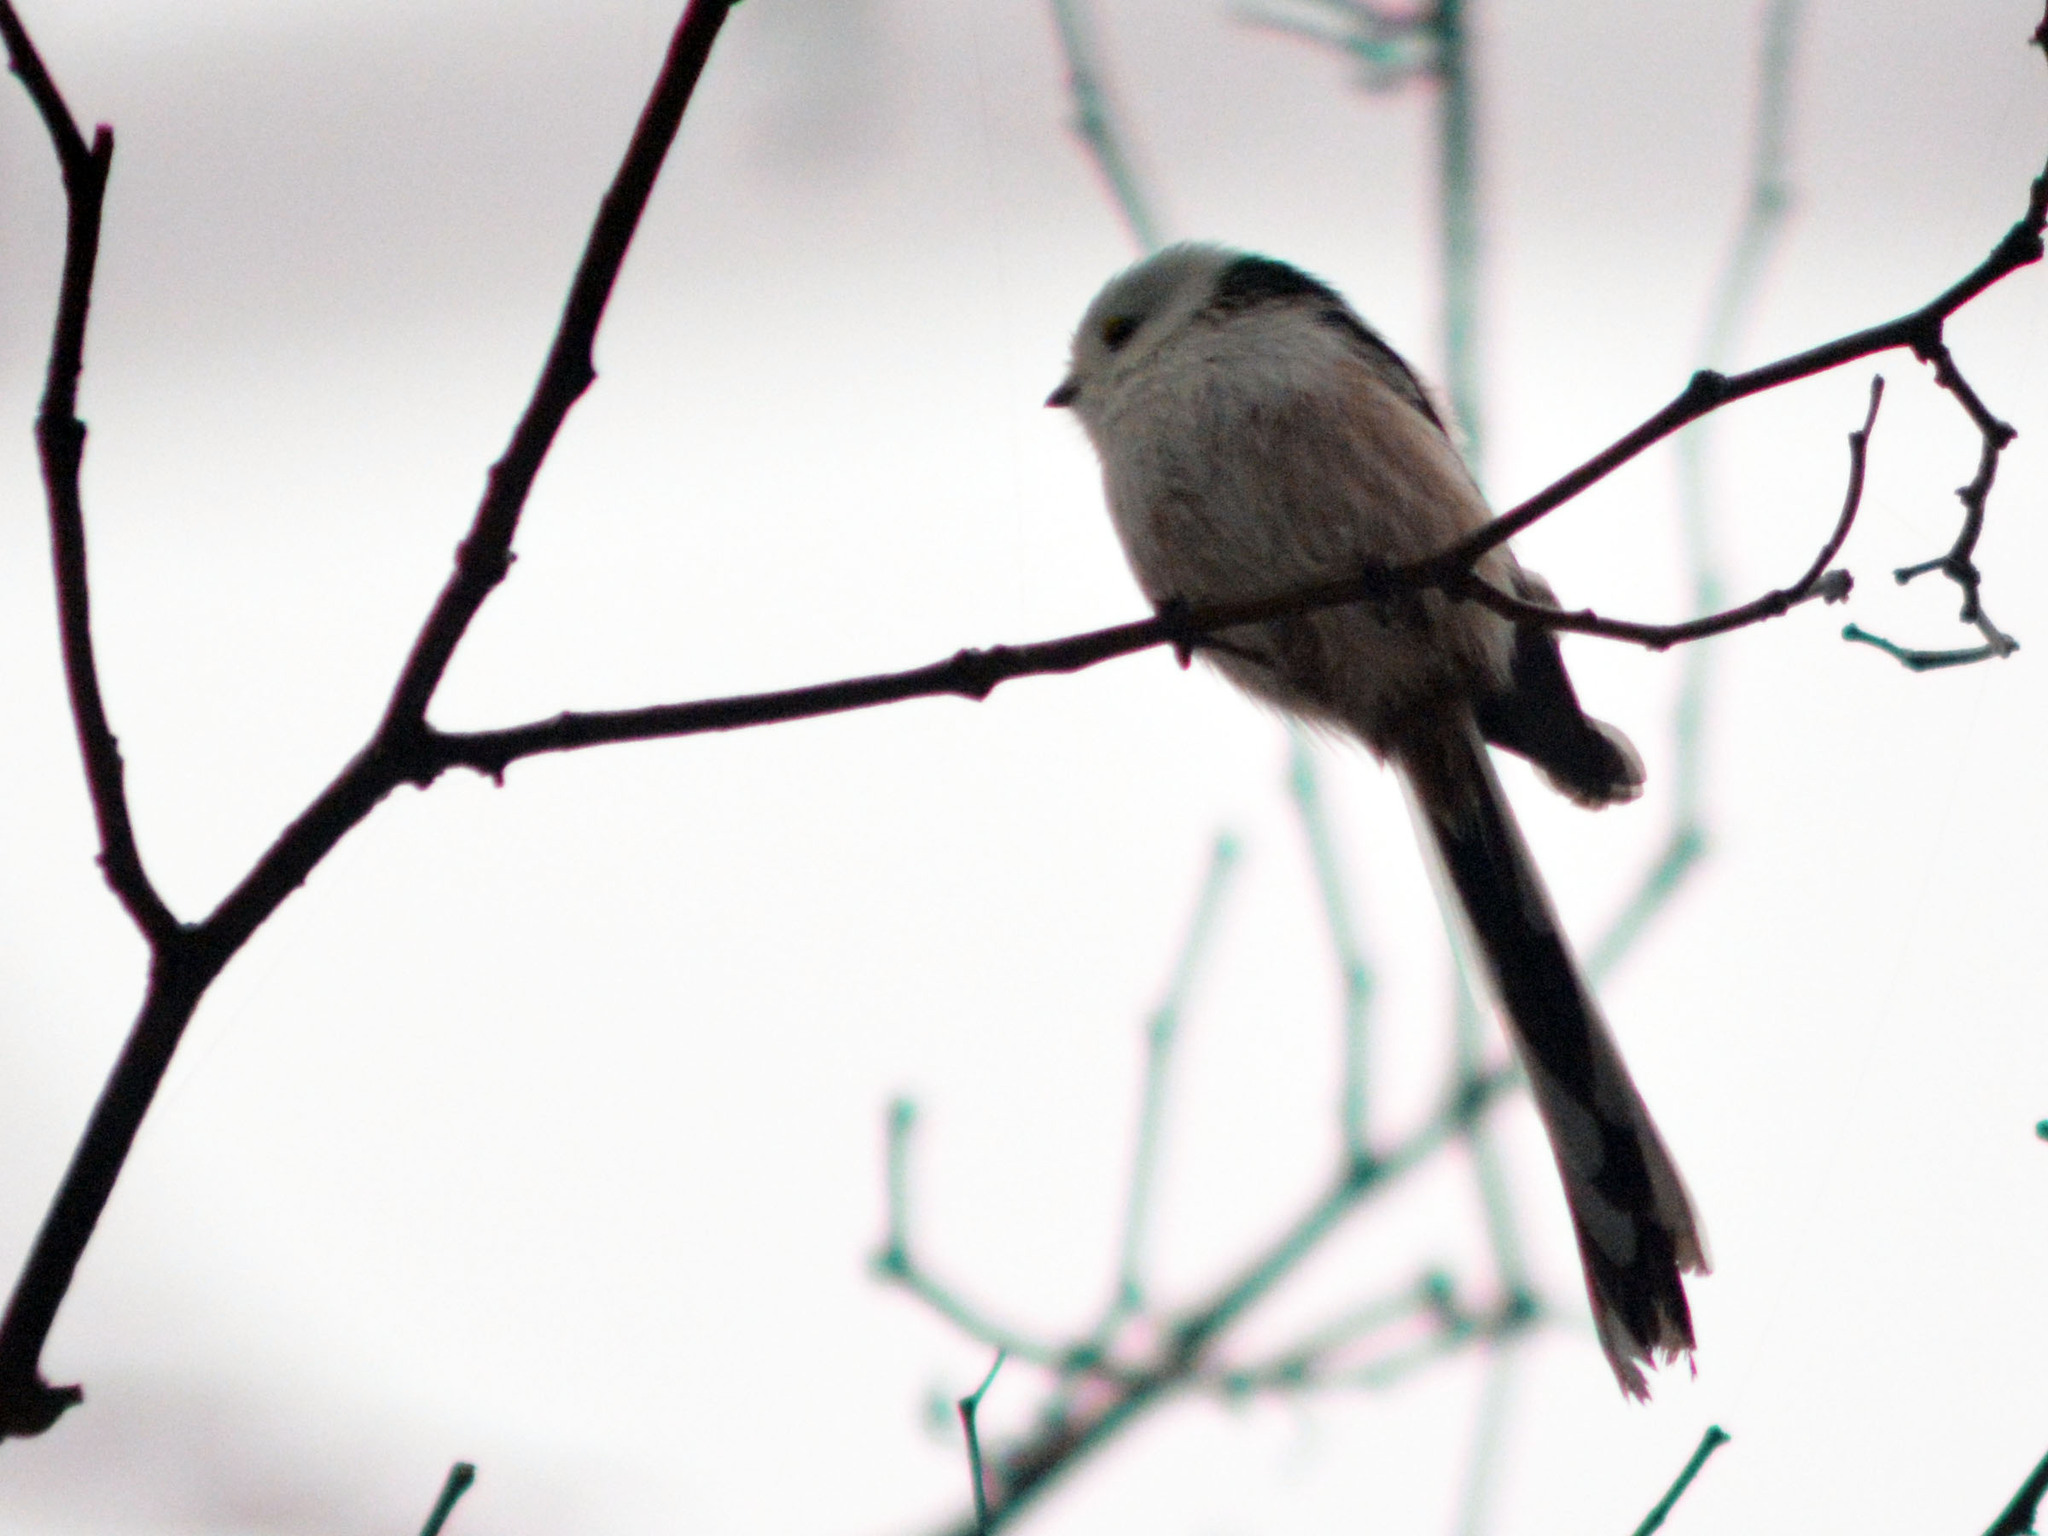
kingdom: Animalia
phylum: Chordata
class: Aves
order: Passeriformes
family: Aegithalidae
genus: Aegithalos
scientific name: Aegithalos caudatus
